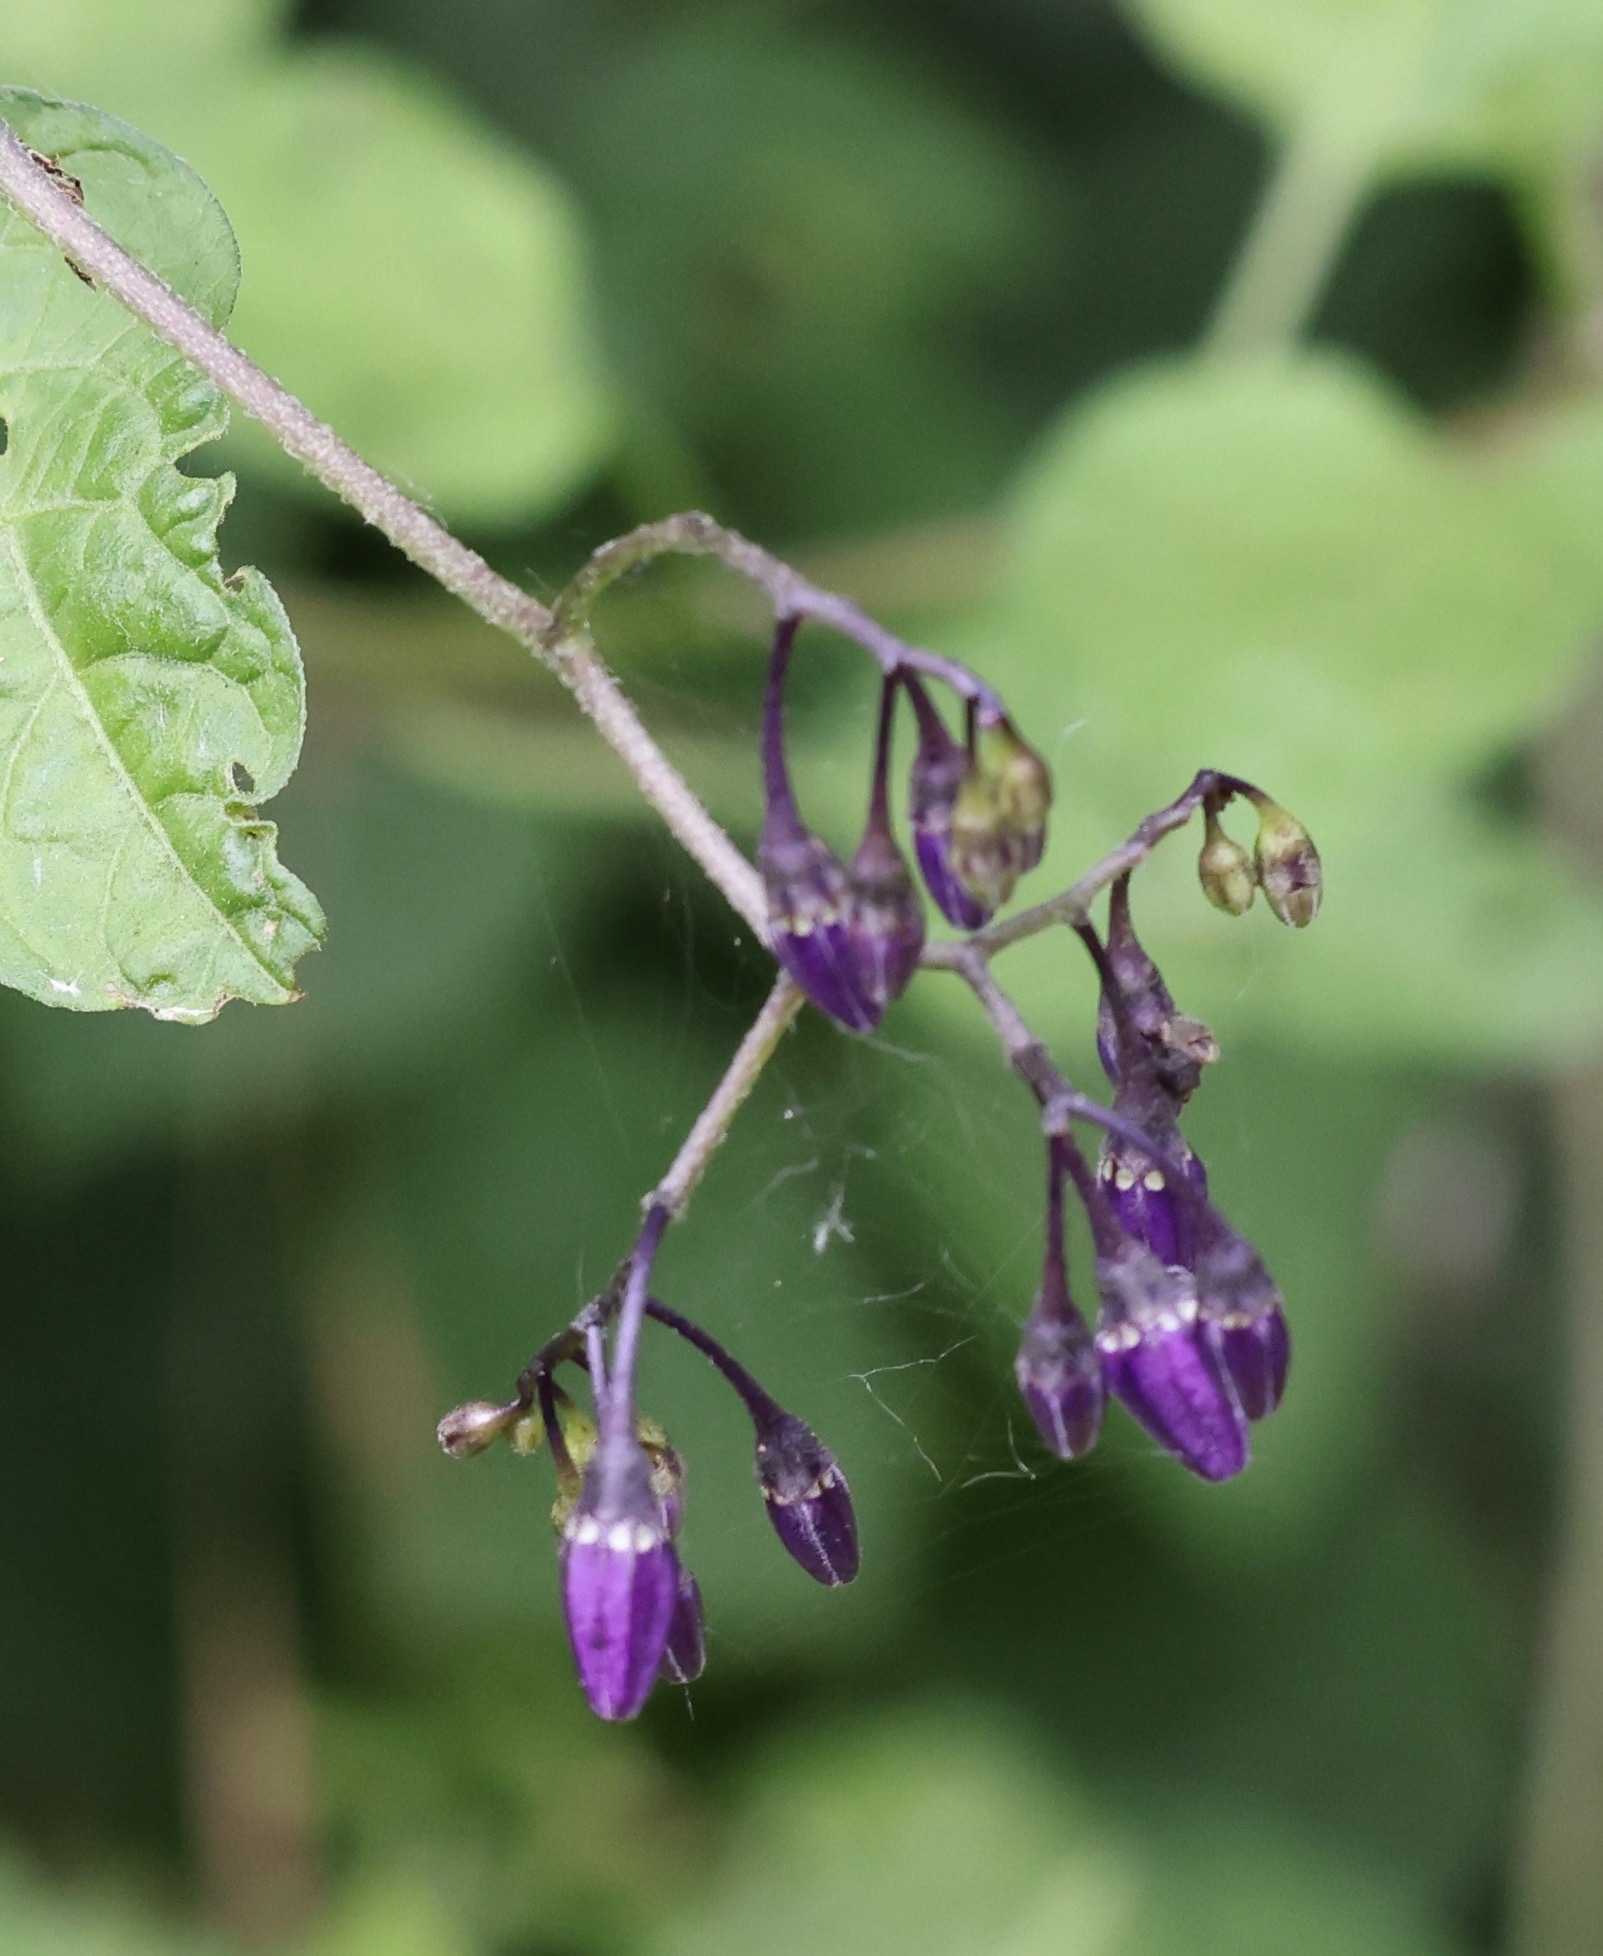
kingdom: Plantae
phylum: Tracheophyta
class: Magnoliopsida
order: Solanales
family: Solanaceae
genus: Solanum
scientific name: Solanum dulcamara
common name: Climbing nightshade
